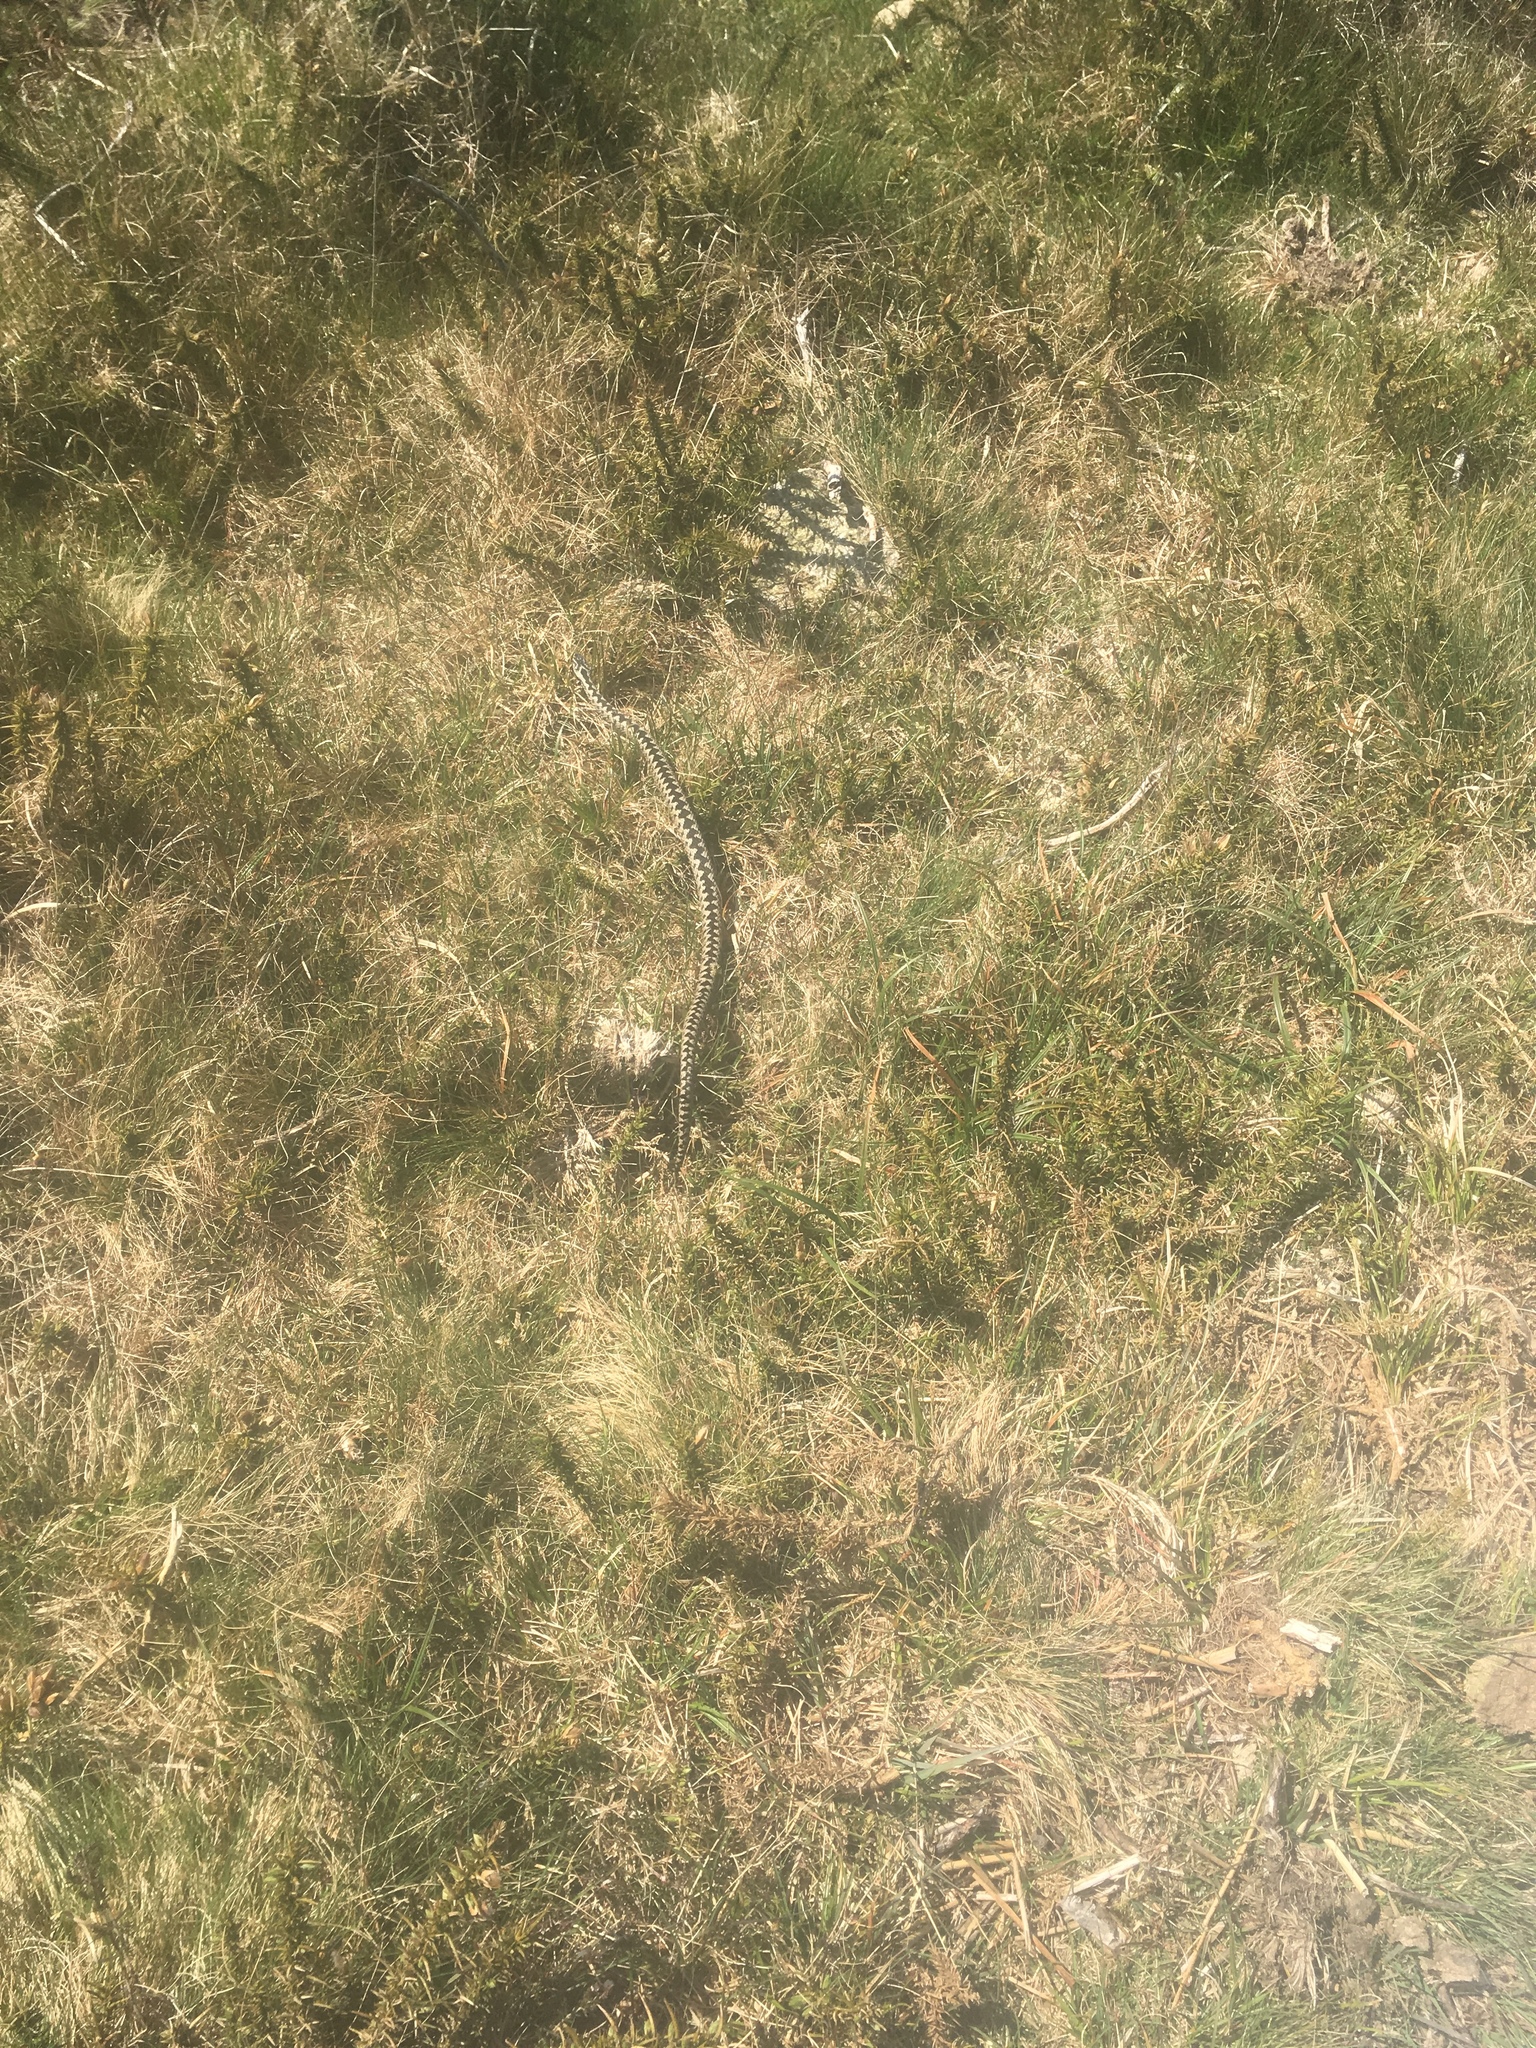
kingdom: Animalia
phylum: Chordata
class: Squamata
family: Viperidae
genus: Vipera
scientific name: Vipera berus
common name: Adder
